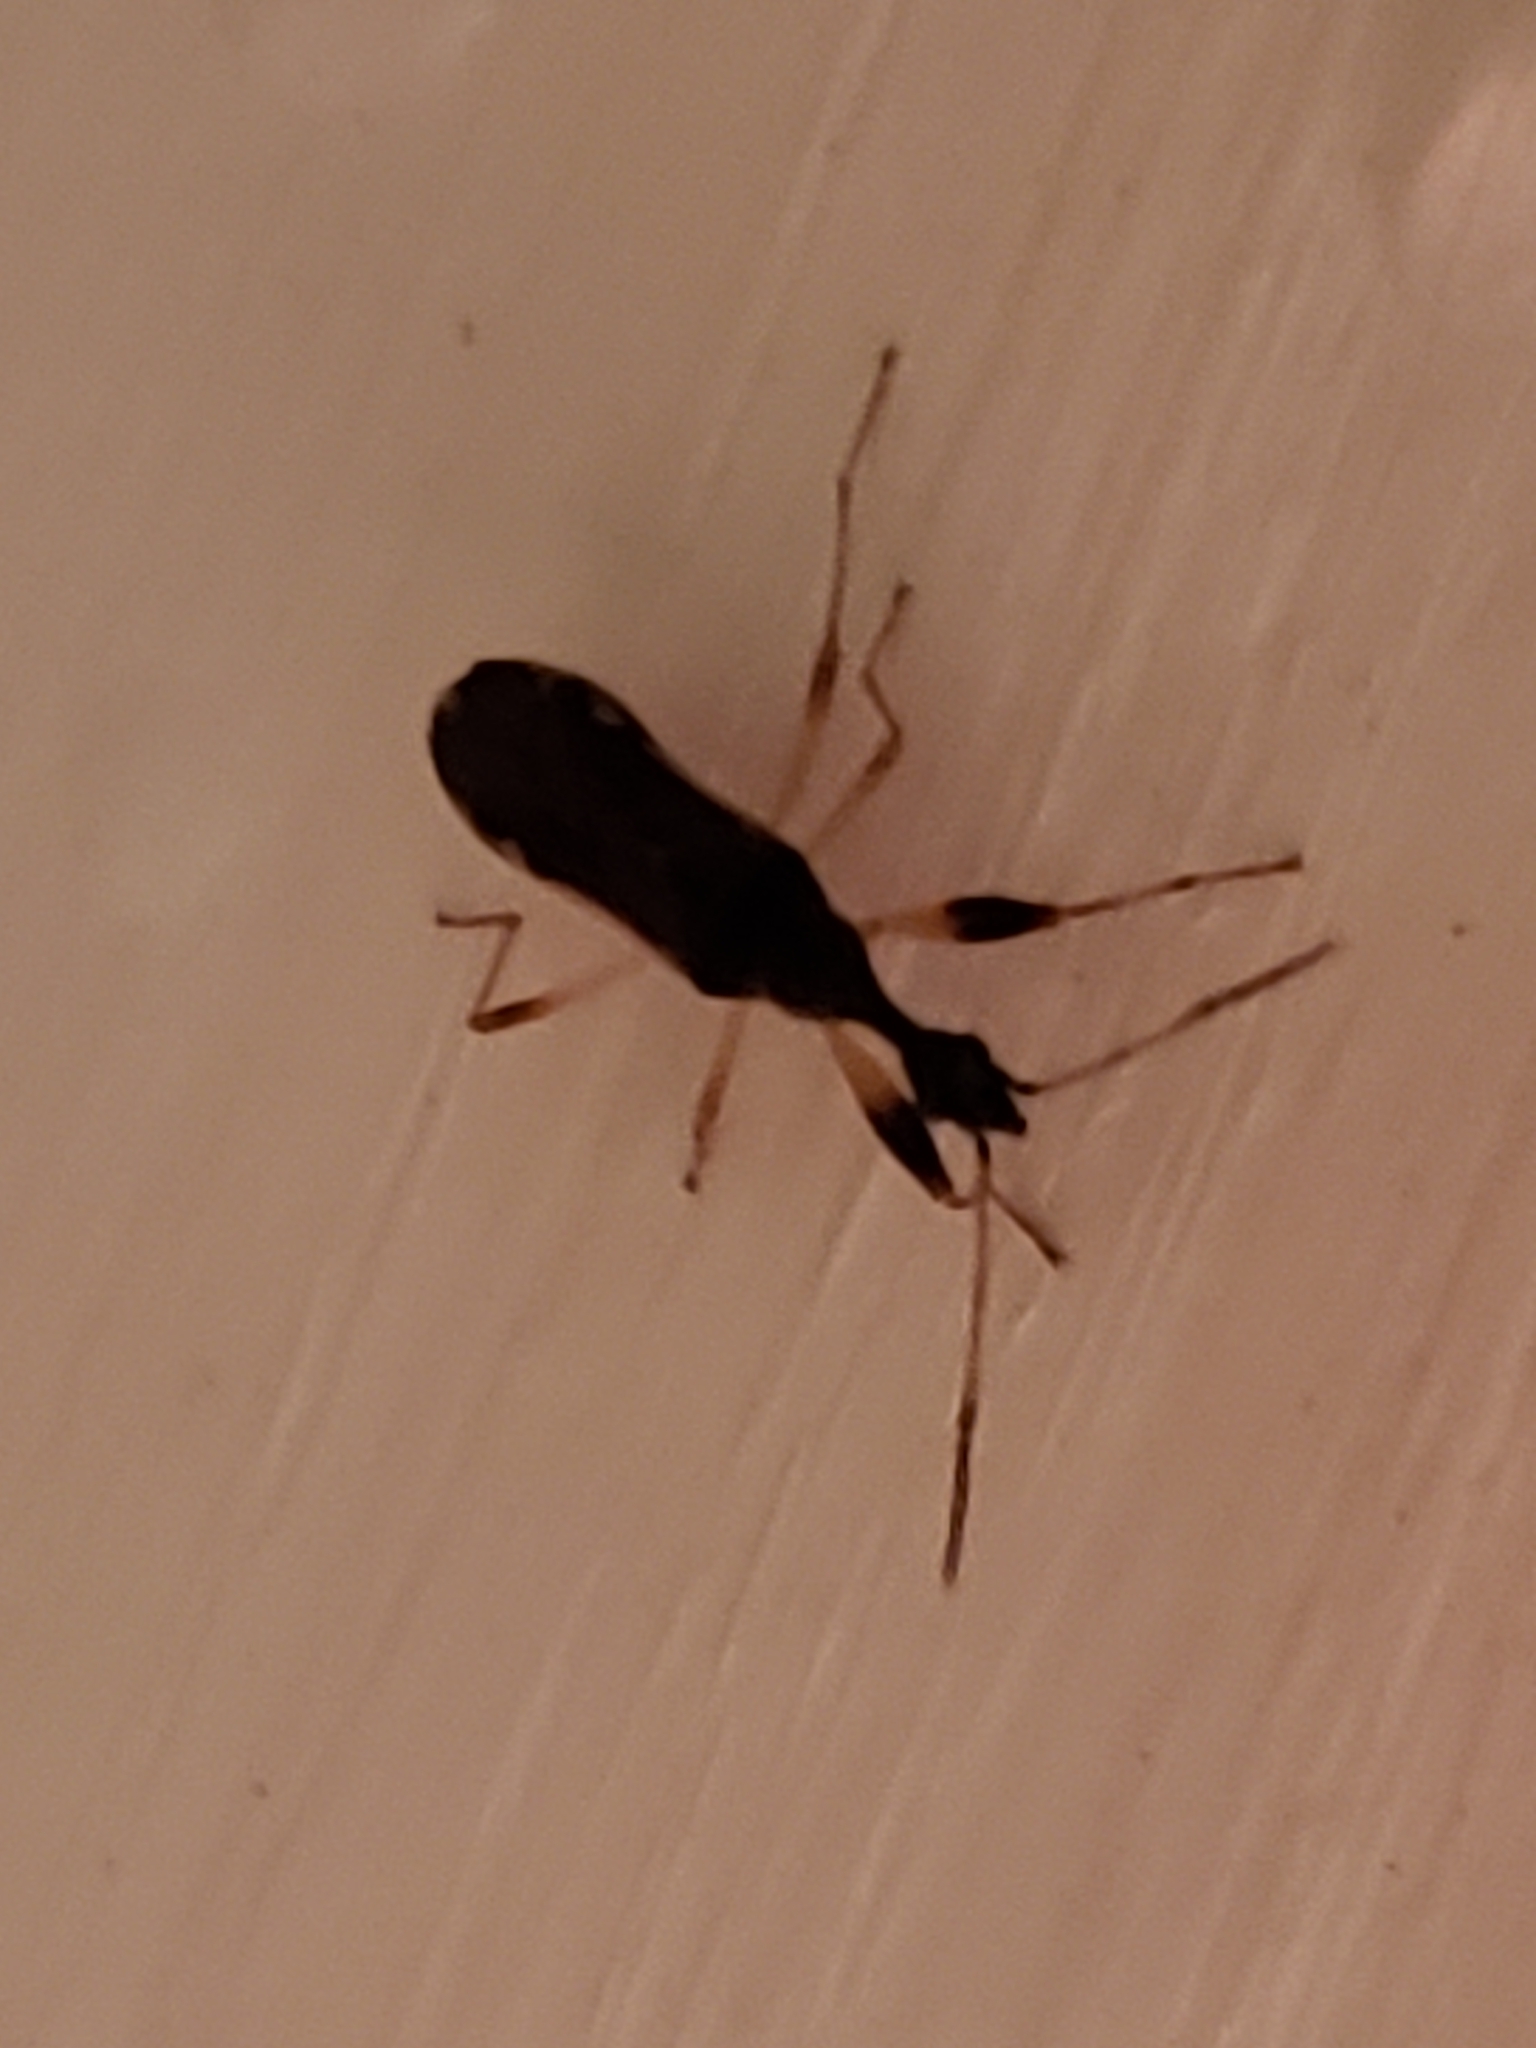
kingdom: Animalia
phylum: Arthropoda
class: Insecta
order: Hemiptera
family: Rhyparochromidae
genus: Myodocha
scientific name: Myodocha serripes
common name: Long-necked seed bug
